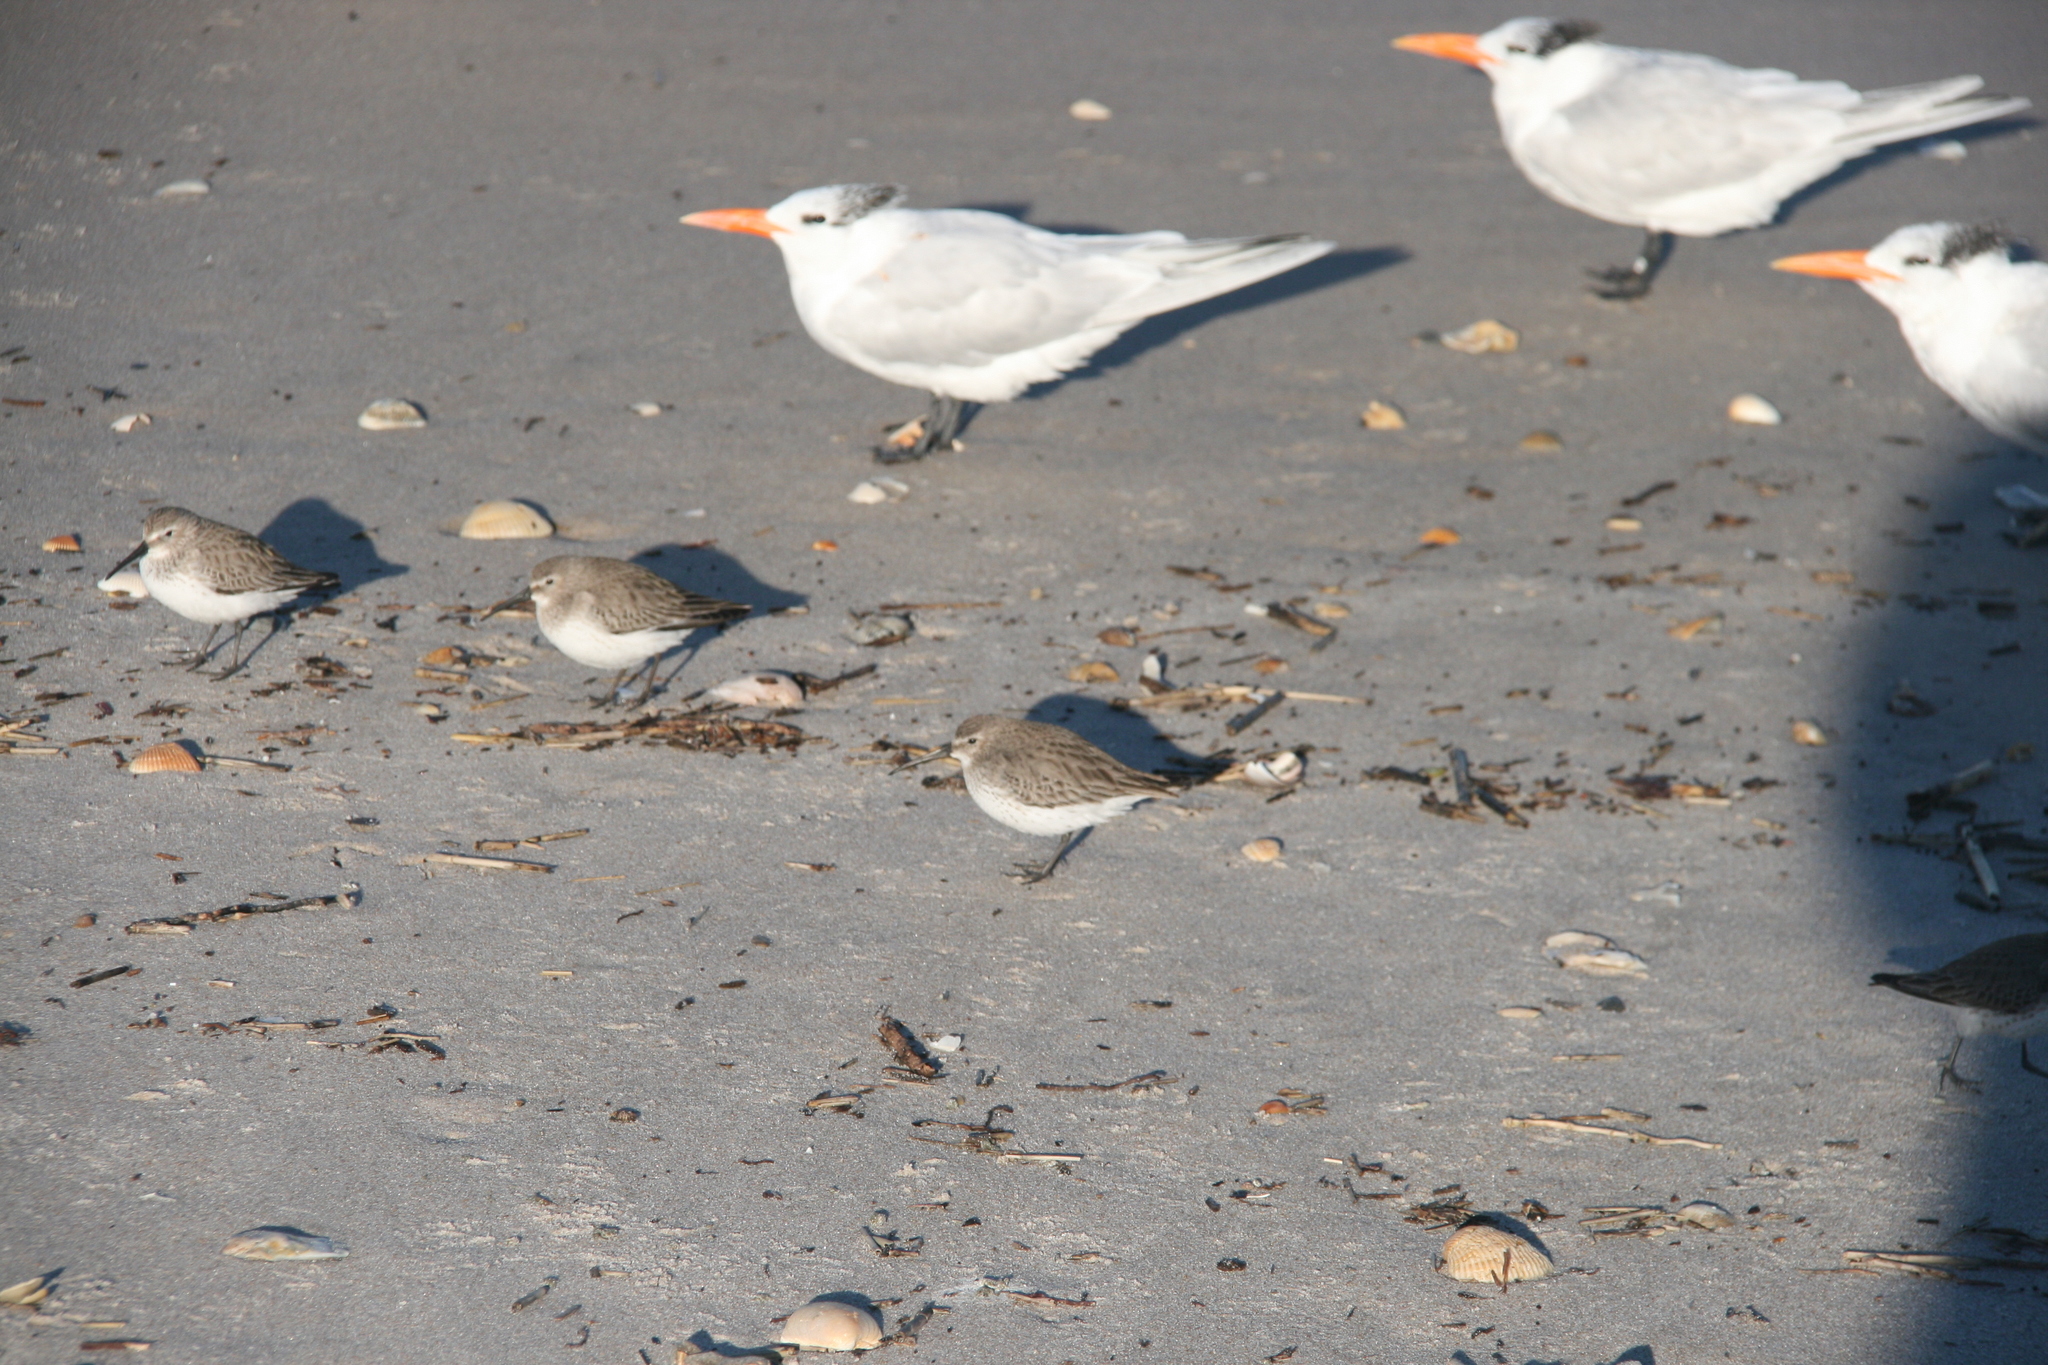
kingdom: Animalia
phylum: Chordata
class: Aves
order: Charadriiformes
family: Charadriidae
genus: Pluvialis
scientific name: Pluvialis squatarola
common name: Grey plover
